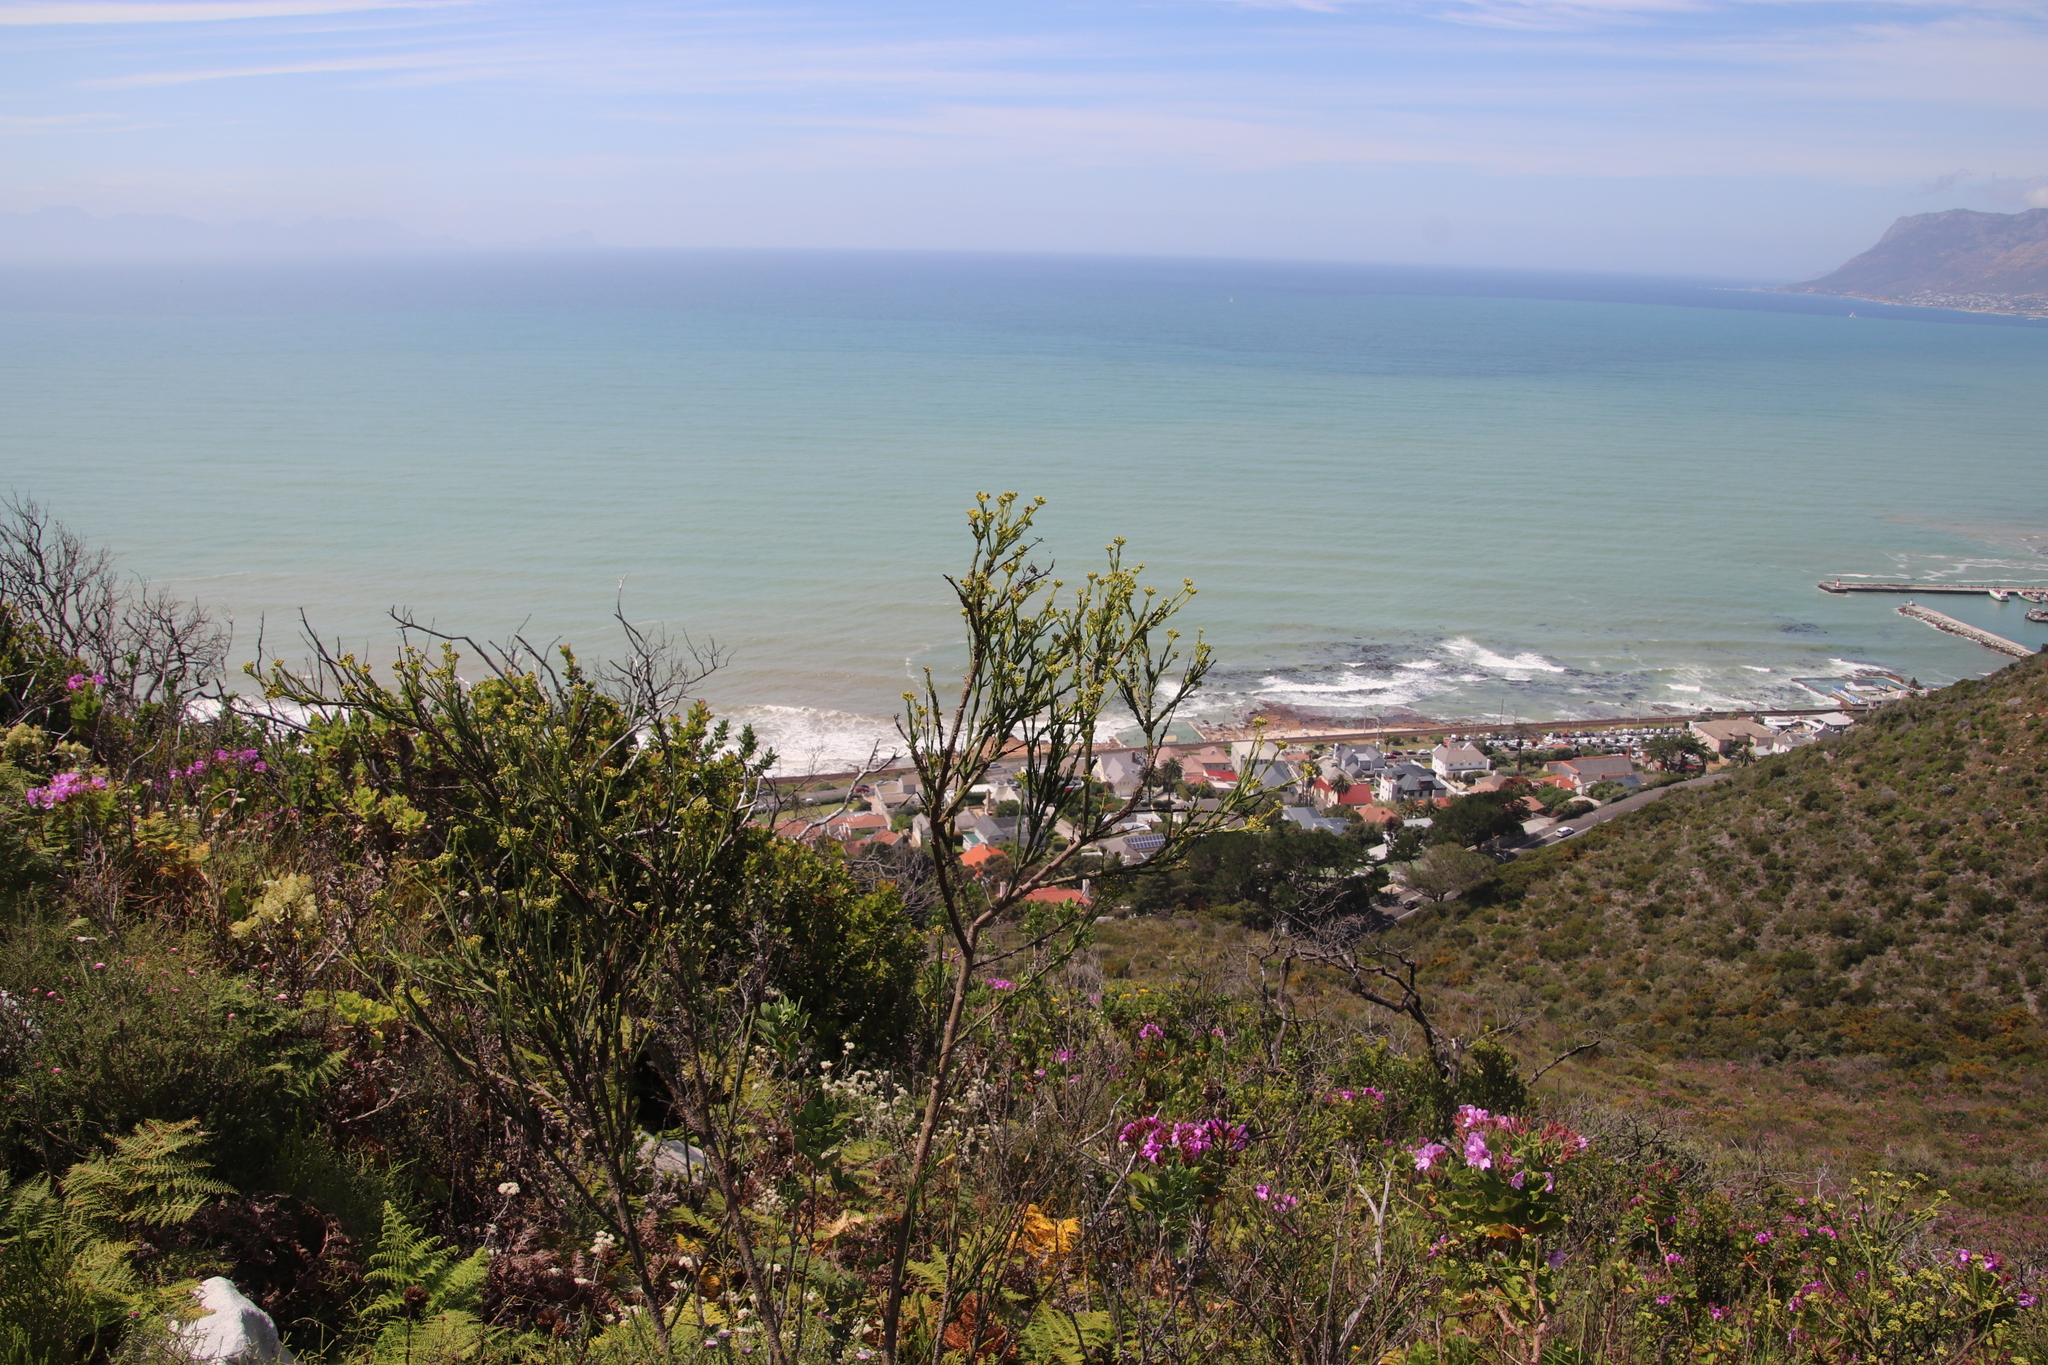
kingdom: Plantae
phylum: Tracheophyta
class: Magnoliopsida
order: Santalales
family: Thesiaceae
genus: Thesium
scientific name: Thesium strictum
